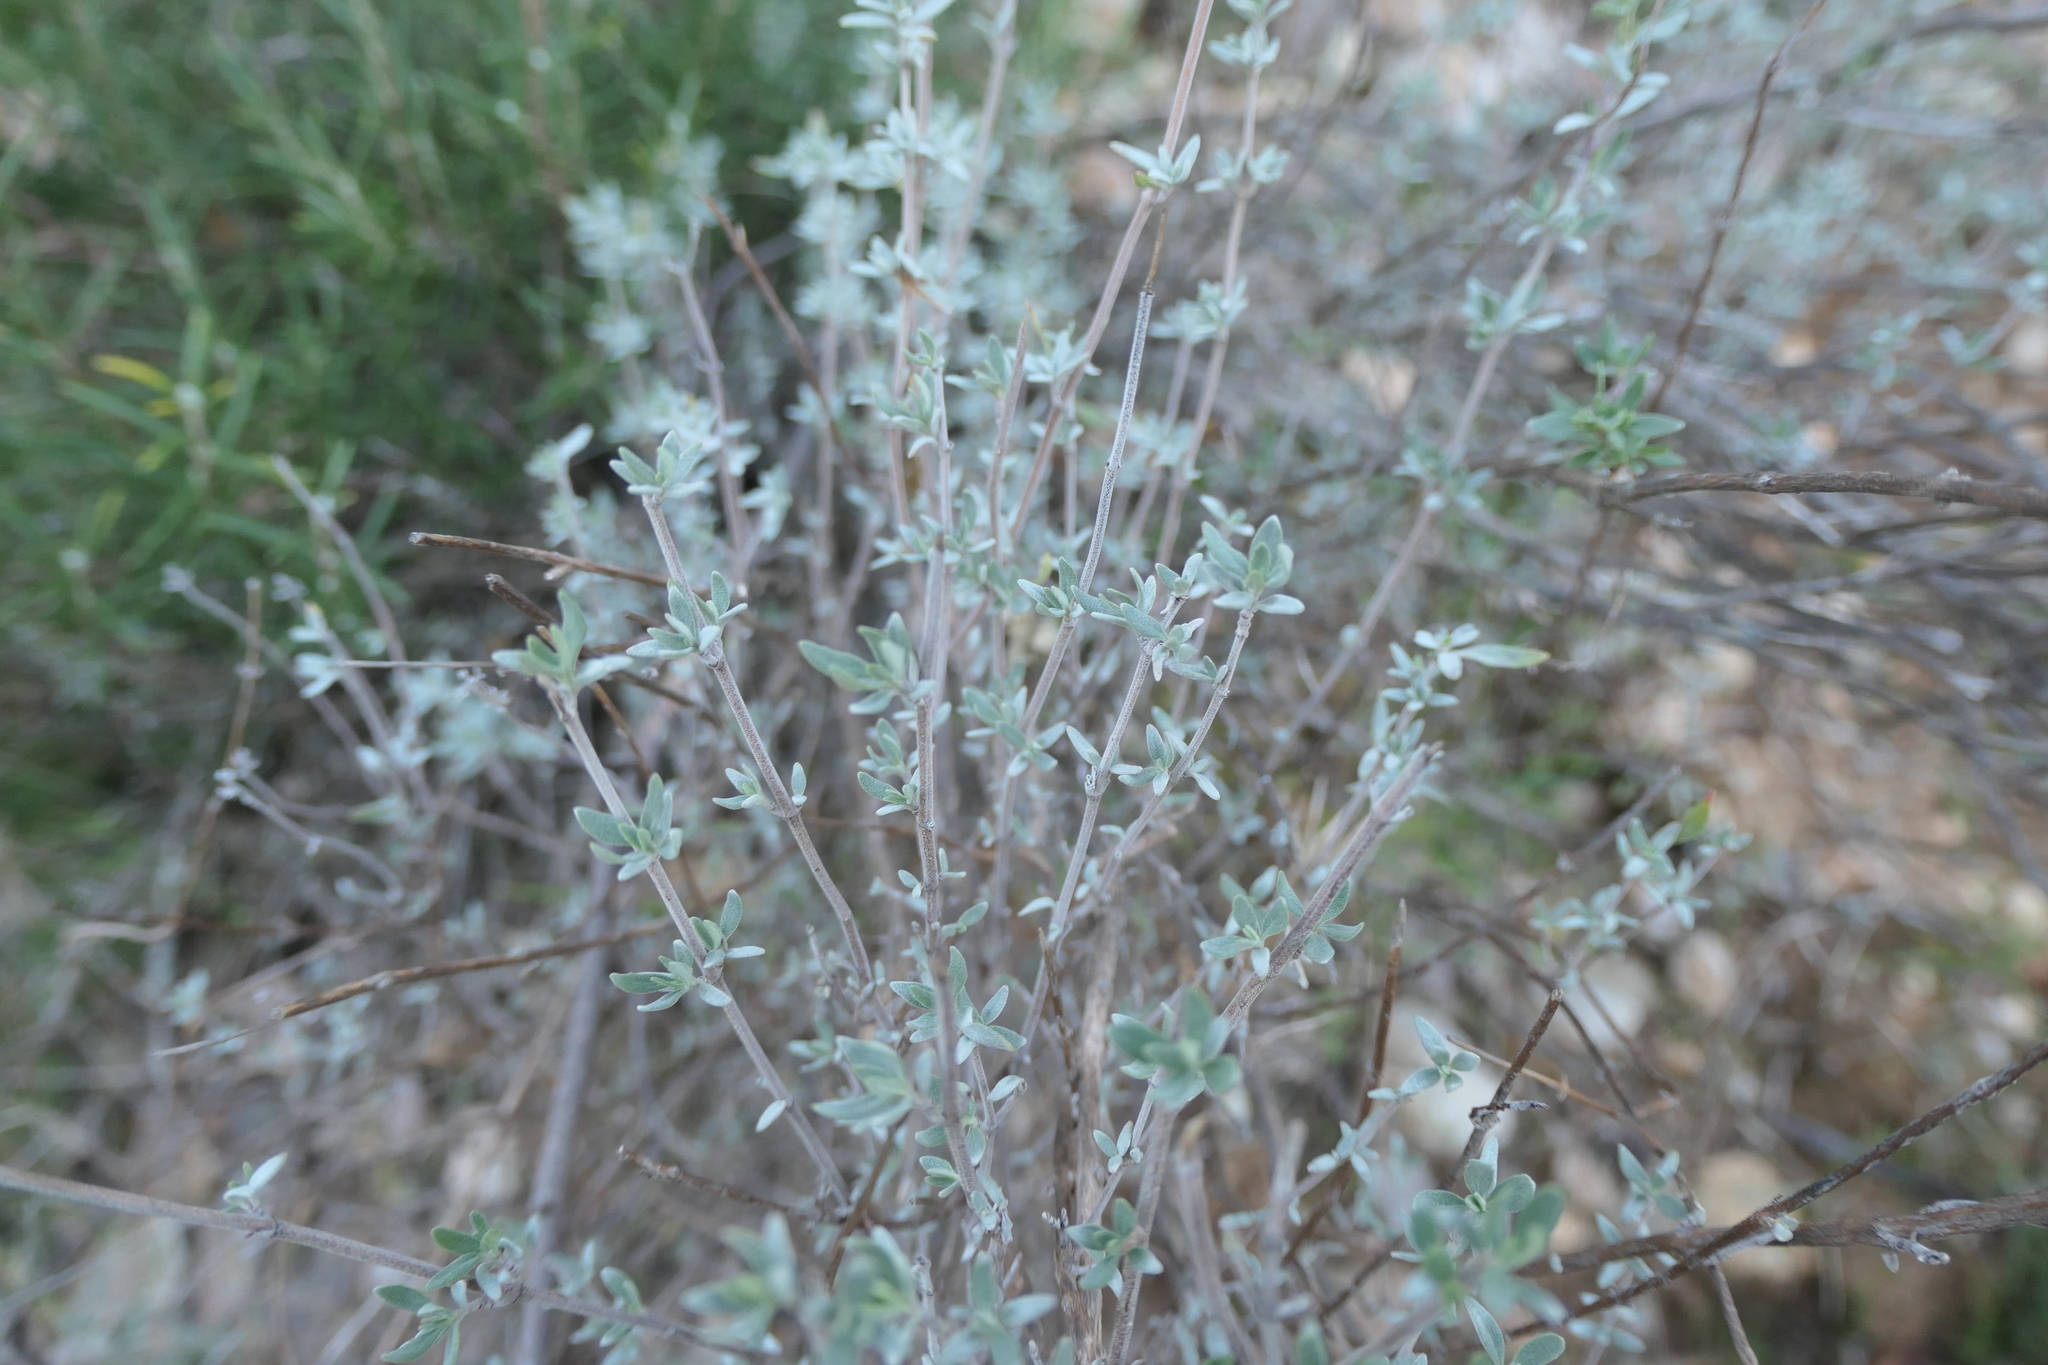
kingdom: Plantae
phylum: Tracheophyta
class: Magnoliopsida
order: Lamiales
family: Lamiaceae
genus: Thymus
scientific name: Thymus mastichina
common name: Mastic thyme
